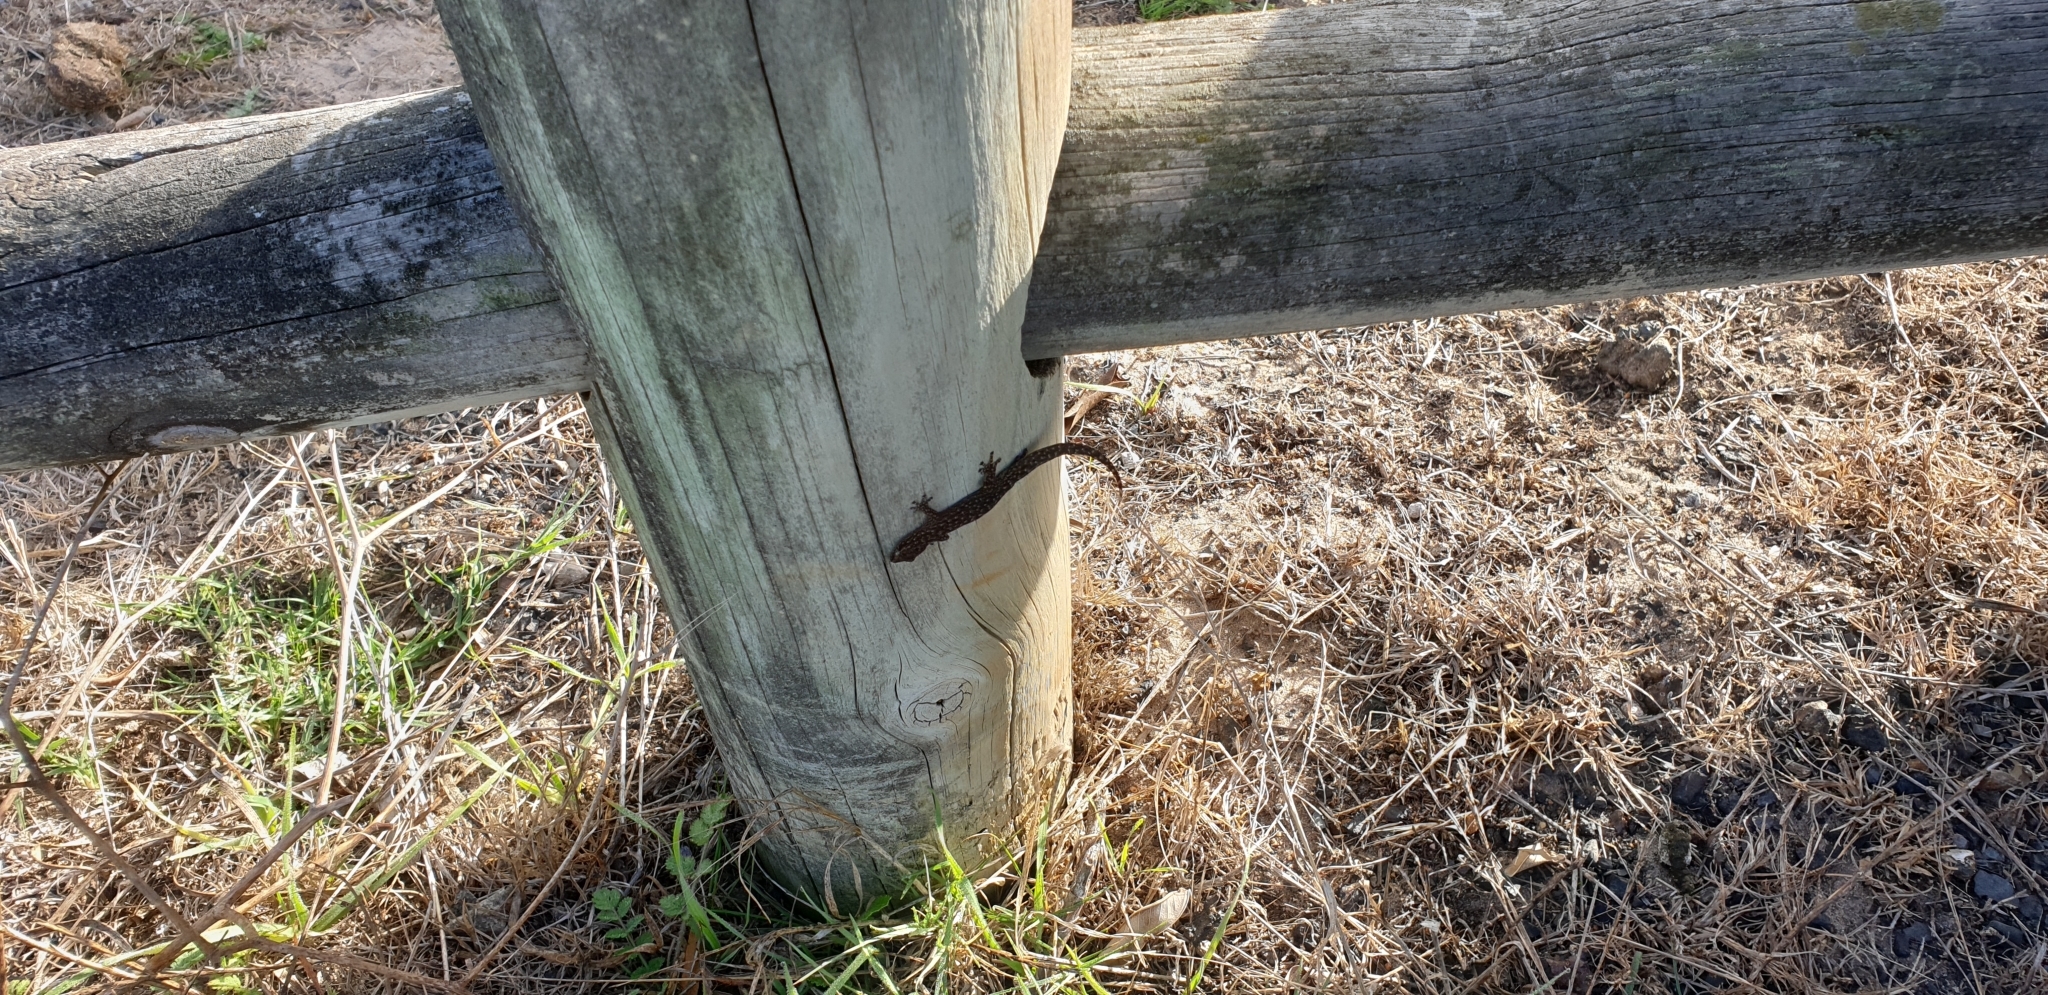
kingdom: Animalia
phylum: Chordata
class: Squamata
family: Gekkonidae
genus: Afrogecko
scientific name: Afrogecko porphyreus
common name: Marbled leaf-toed gecko
